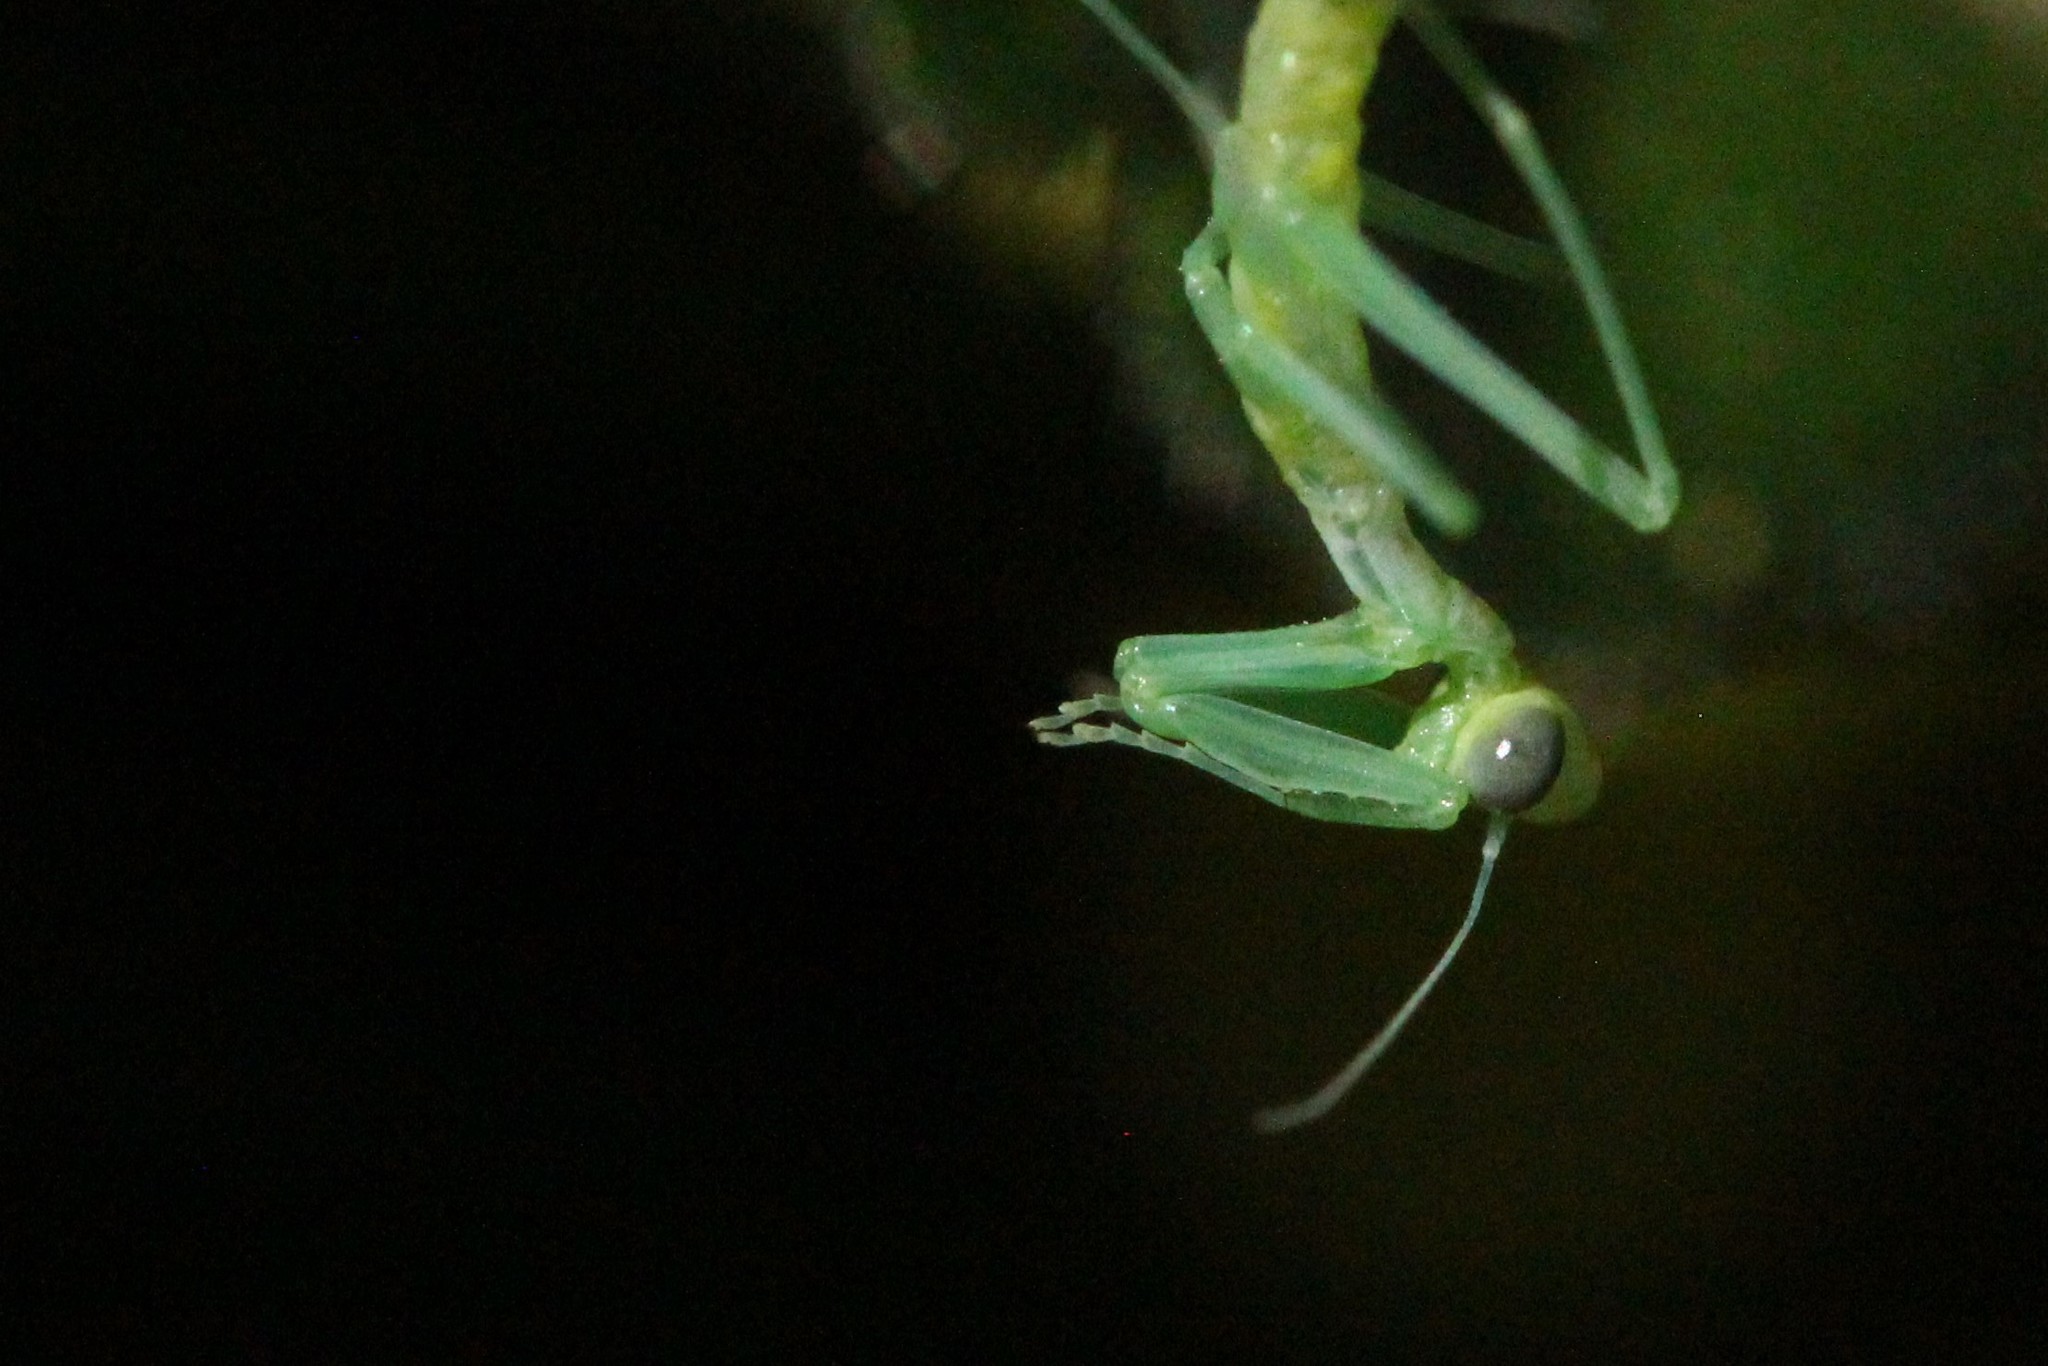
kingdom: Animalia
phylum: Arthropoda
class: Insecta
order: Mantodea
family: Mantidae
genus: Stagmomantis
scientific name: Stagmomantis limbata
